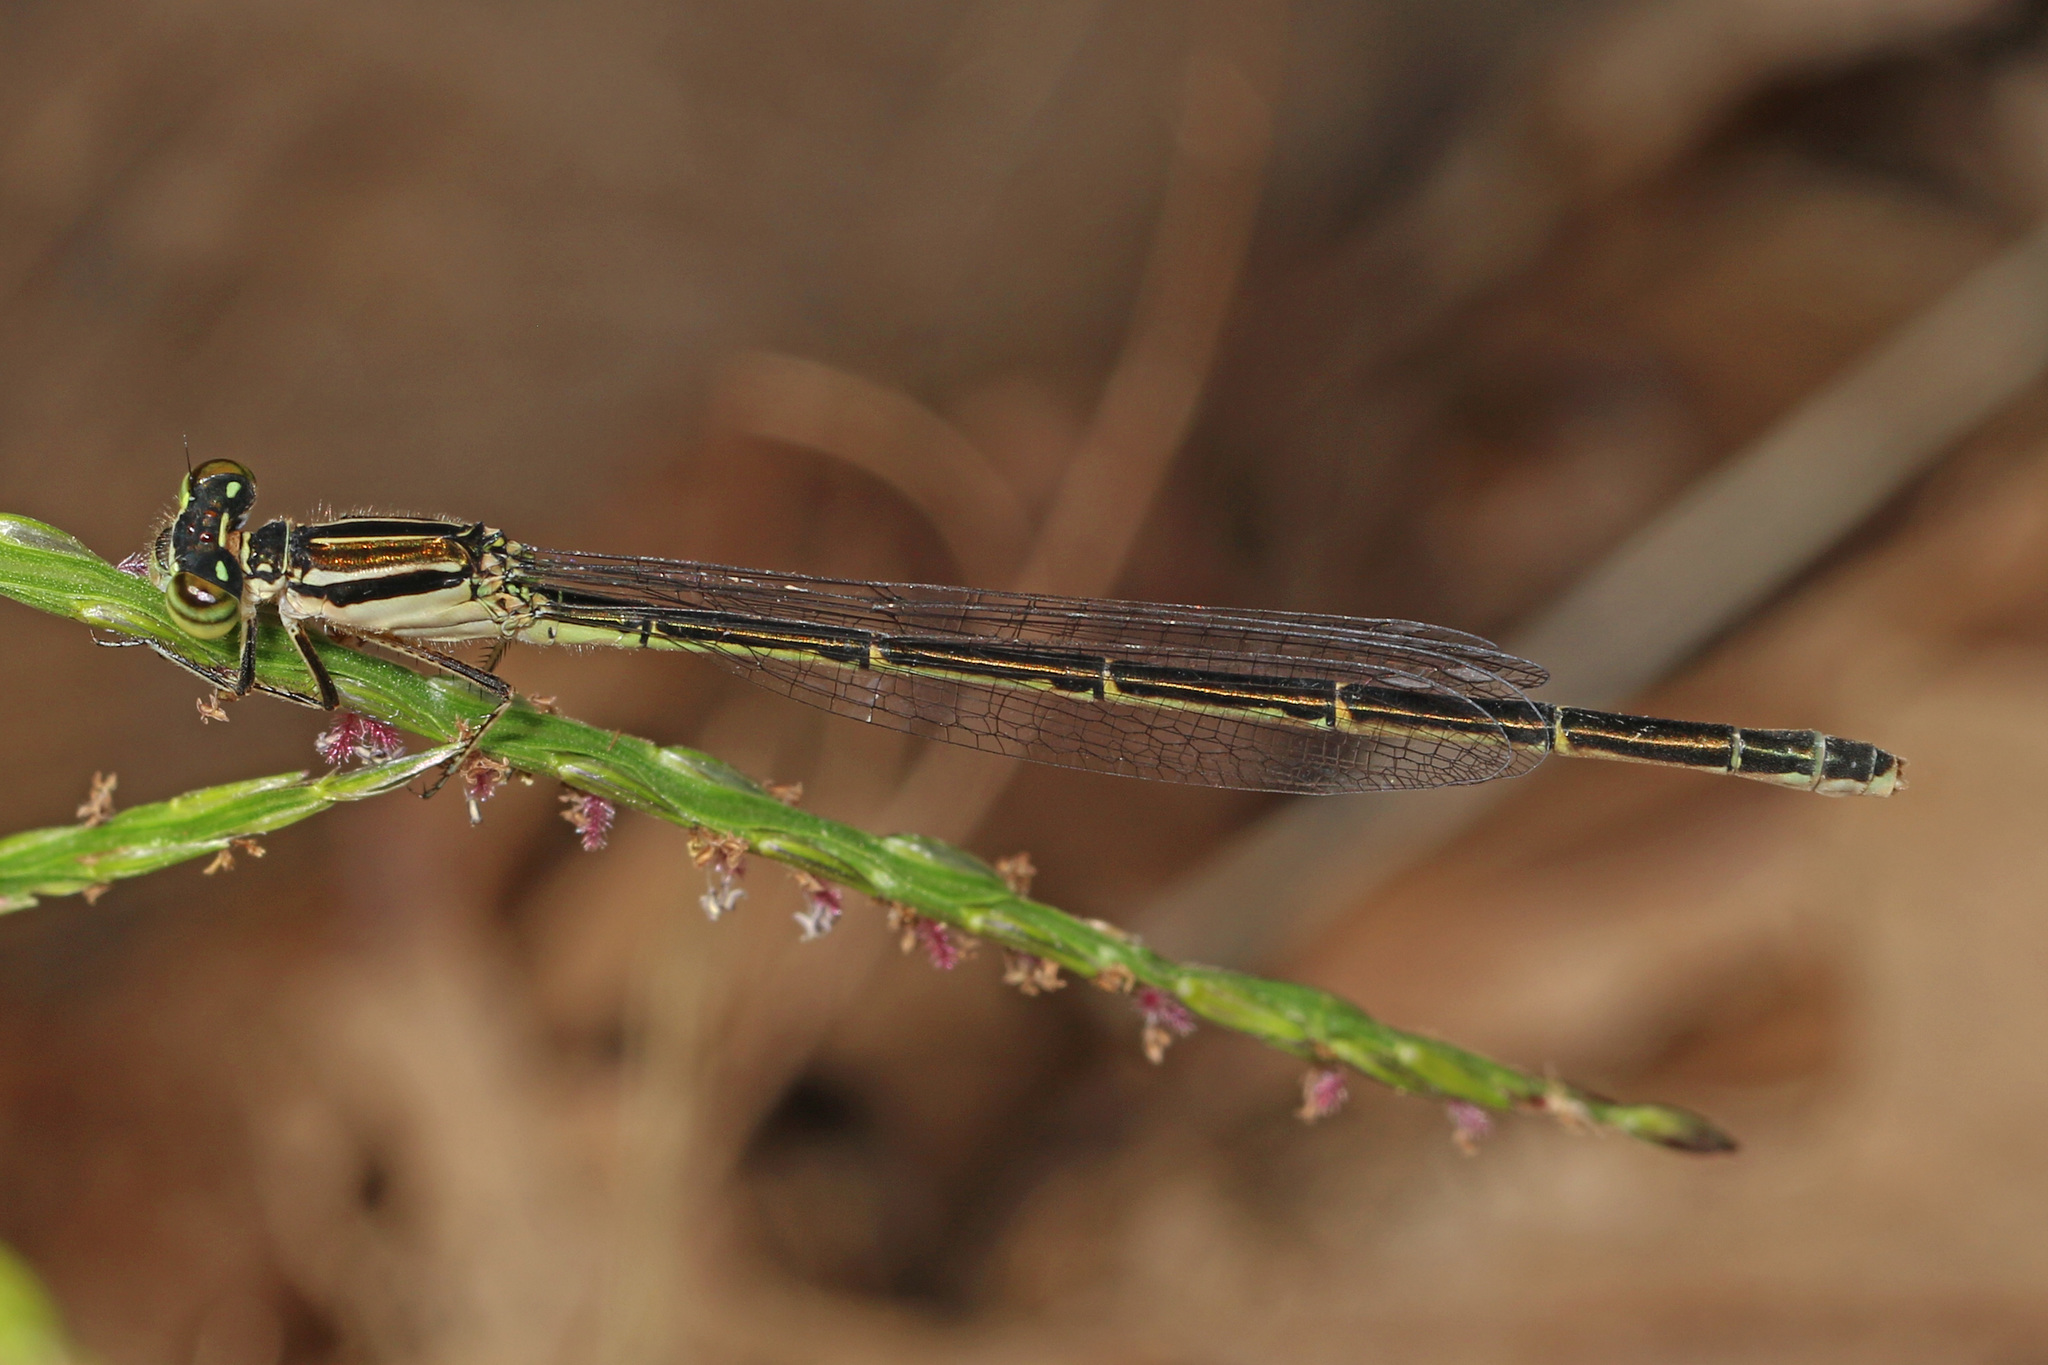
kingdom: Animalia
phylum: Arthropoda
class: Insecta
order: Odonata
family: Coenagrionidae
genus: Enallagma
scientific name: Enallagma durum
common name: Big bluet
